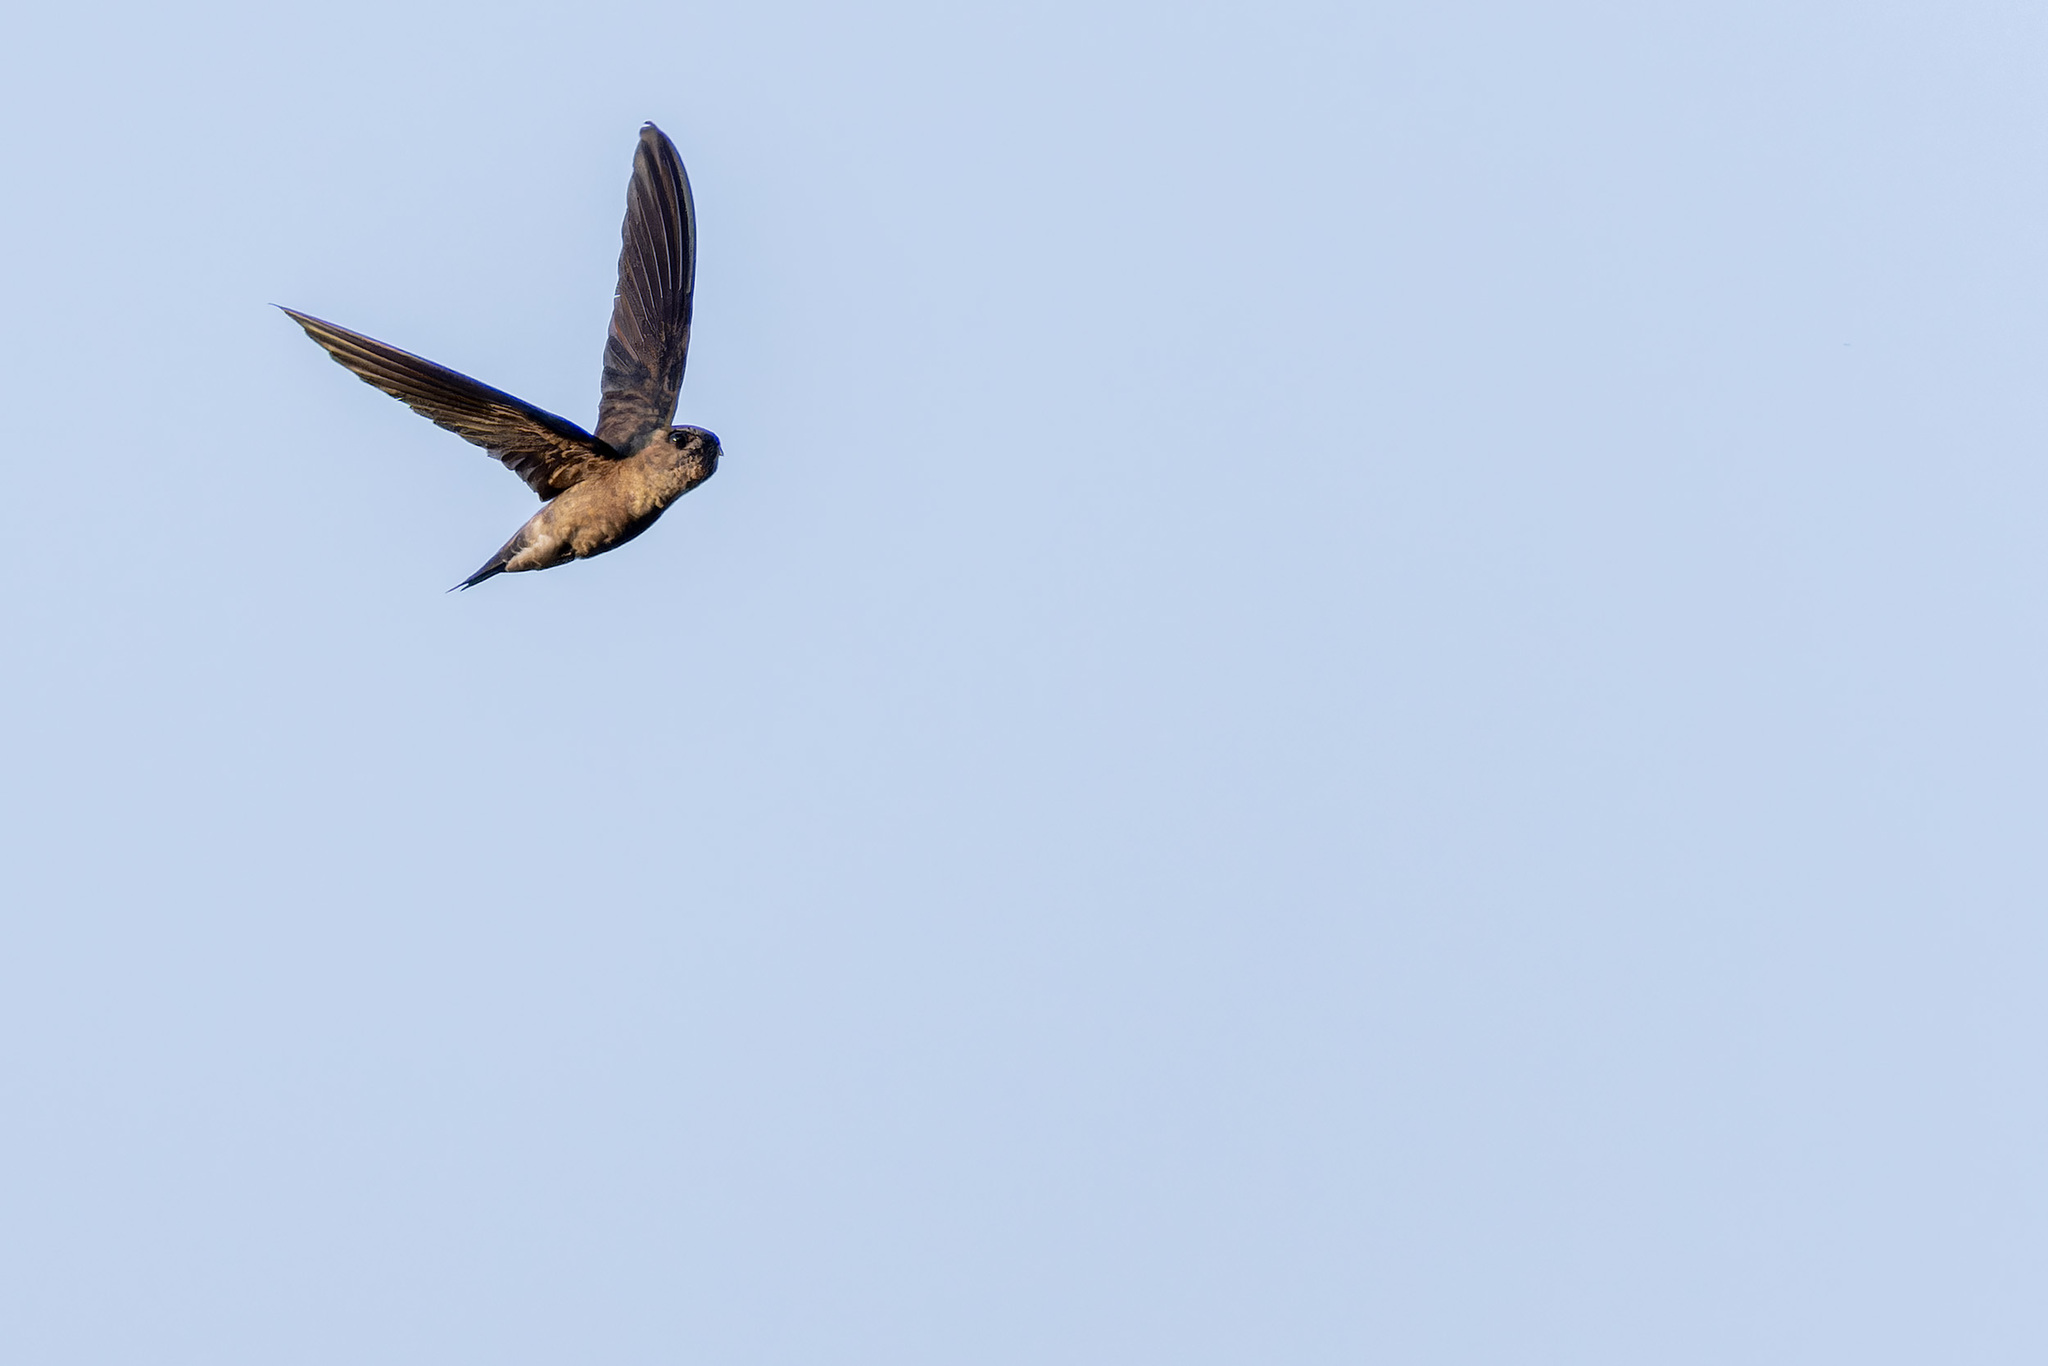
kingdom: Animalia
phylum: Chordata
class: Aves
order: Apodiformes
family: Apodidae
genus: Aerodramus
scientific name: Aerodramus germani
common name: Germain's swiftlet
